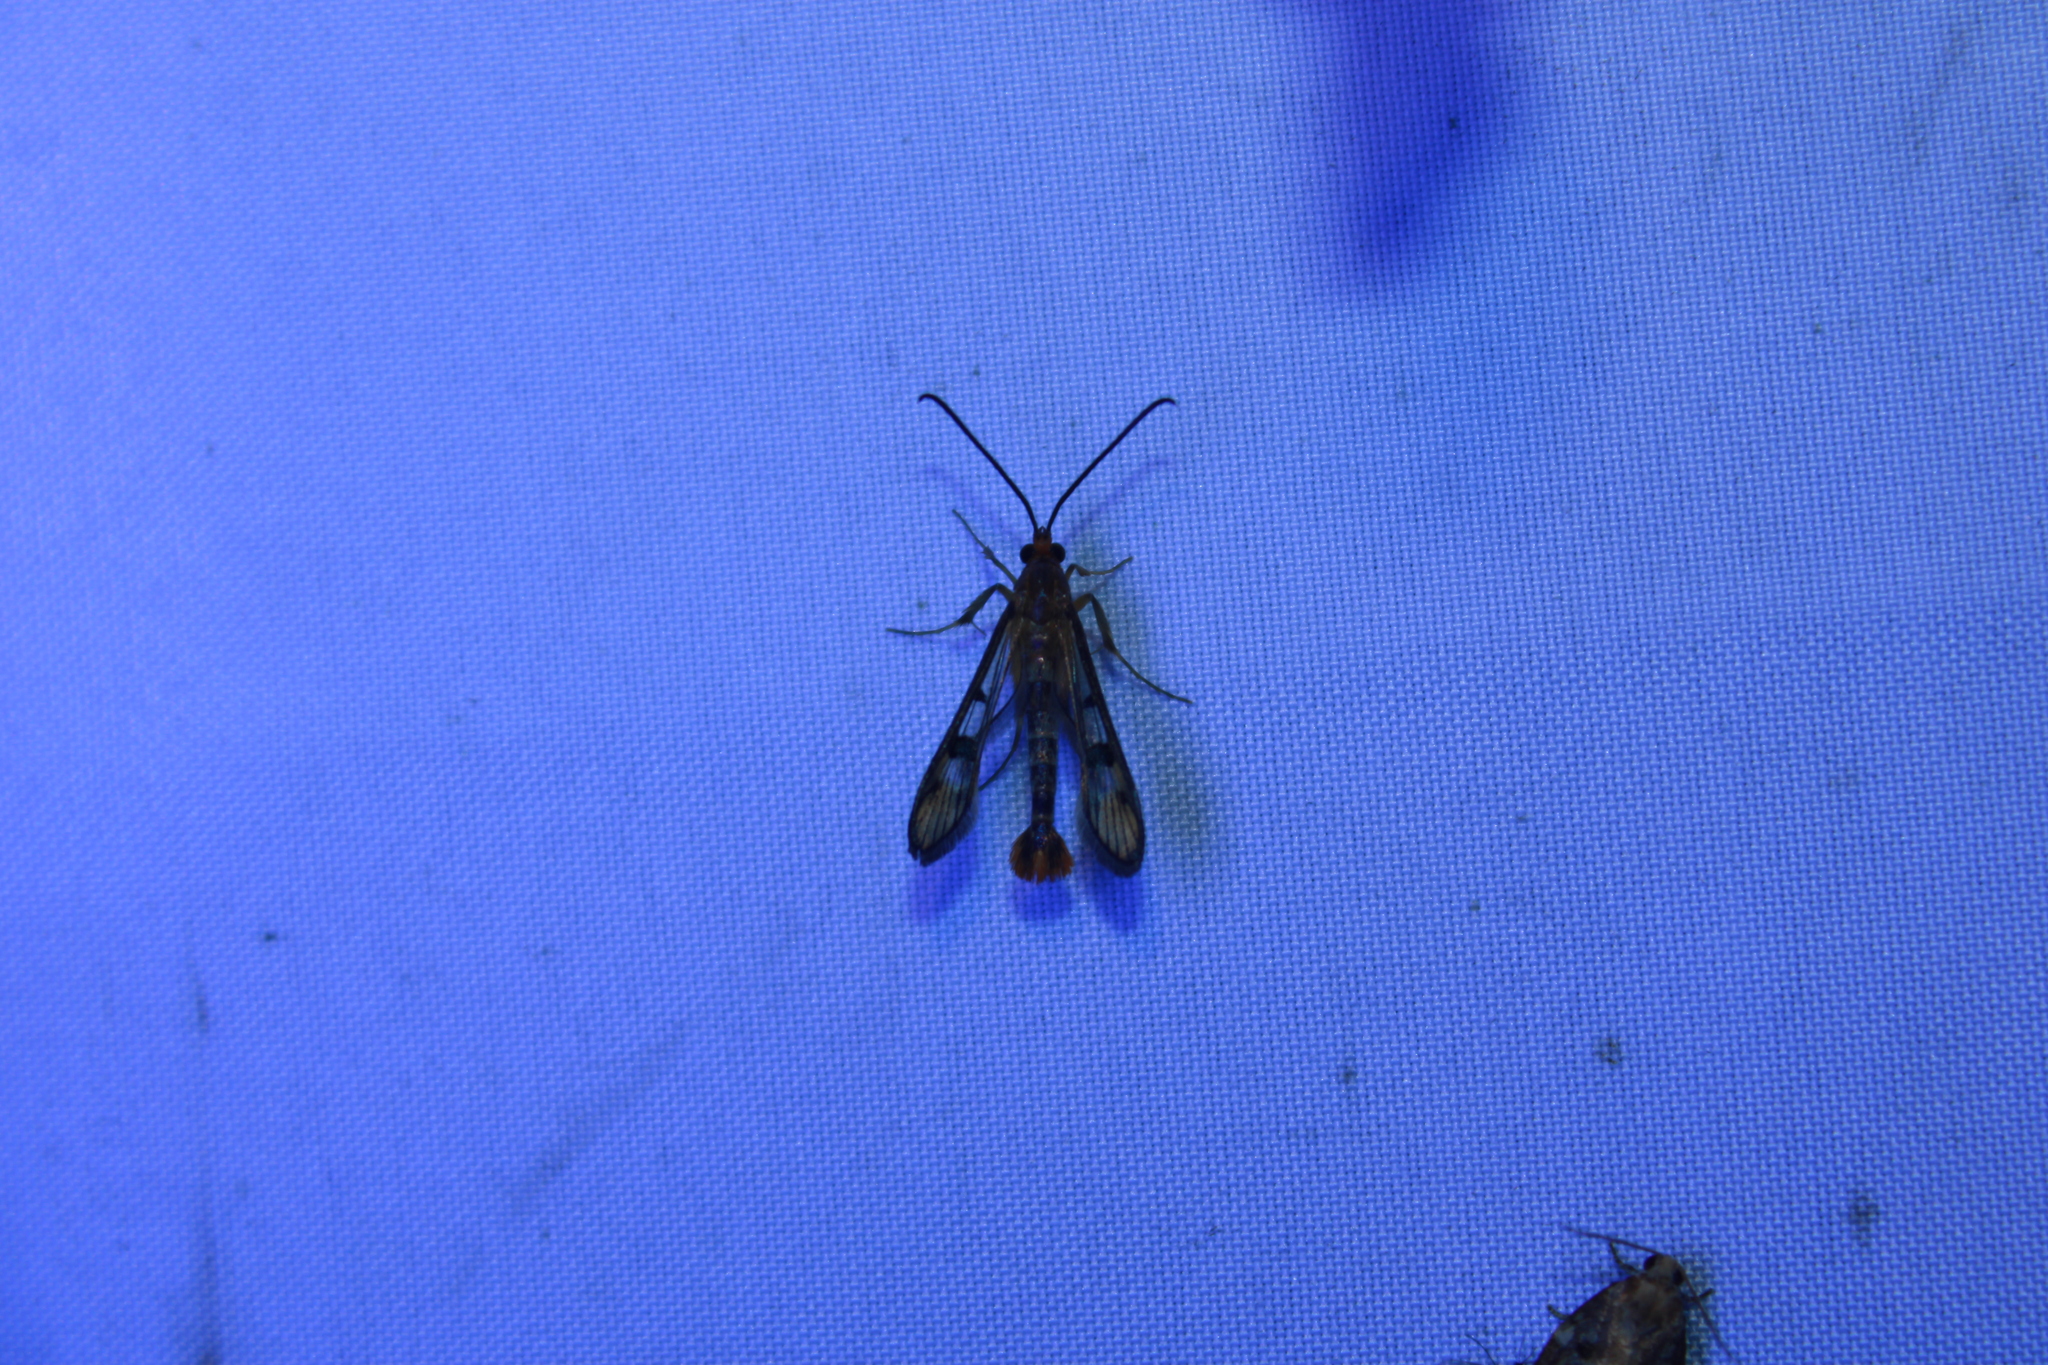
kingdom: Animalia
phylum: Arthropoda
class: Insecta
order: Lepidoptera
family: Sesiidae
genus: Synanthedon
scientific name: Synanthedon acerni
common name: Maple callus borer moth
